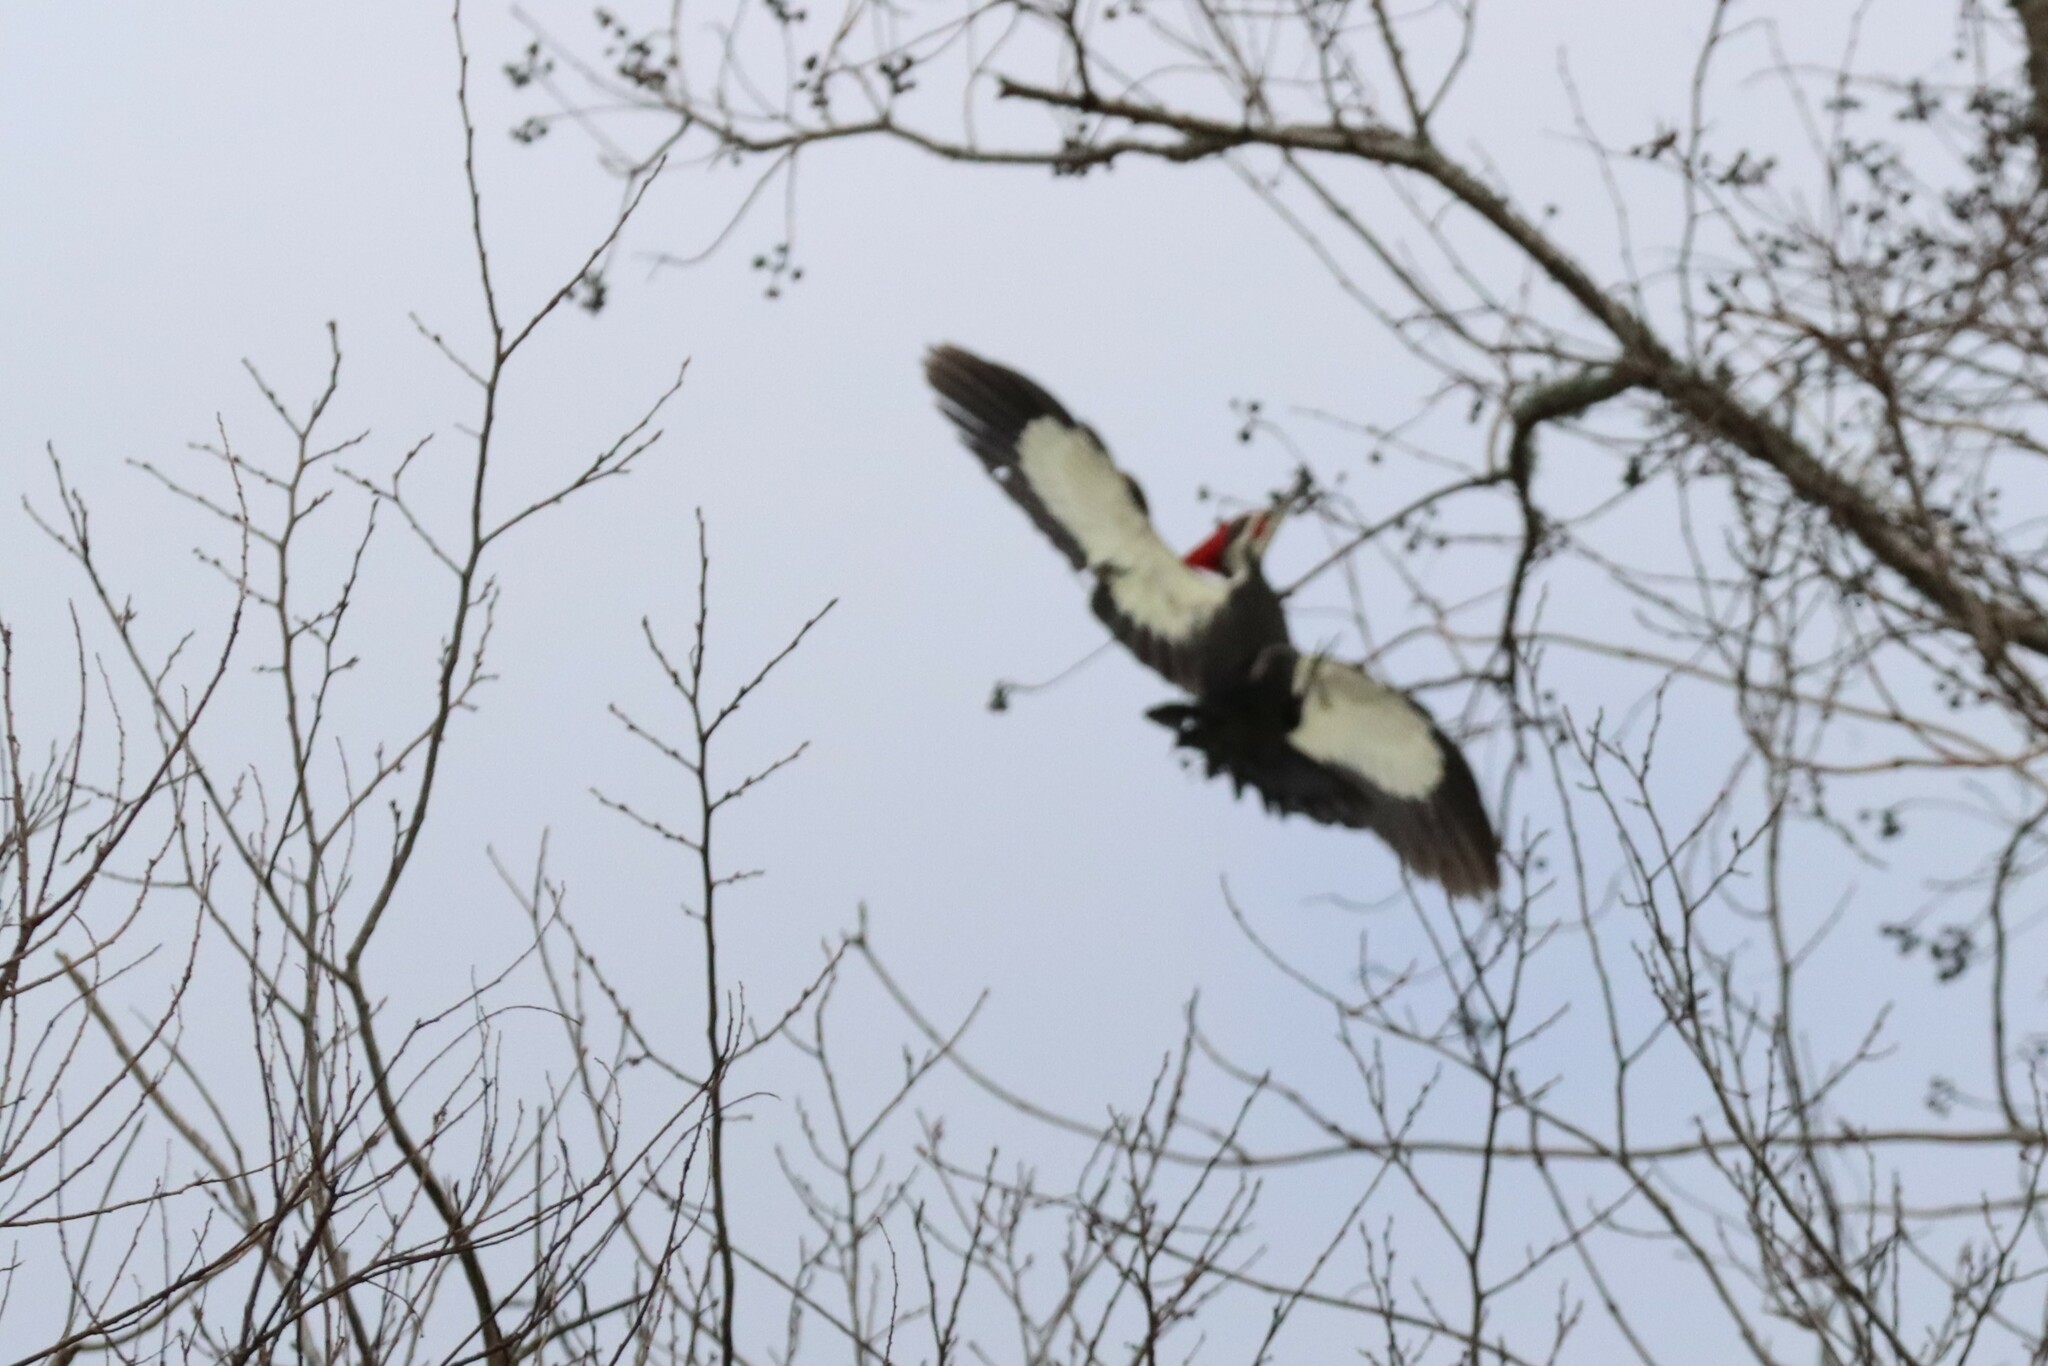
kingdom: Animalia
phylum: Chordata
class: Aves
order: Piciformes
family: Picidae
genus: Dryocopus
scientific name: Dryocopus pileatus
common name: Pileated woodpecker
